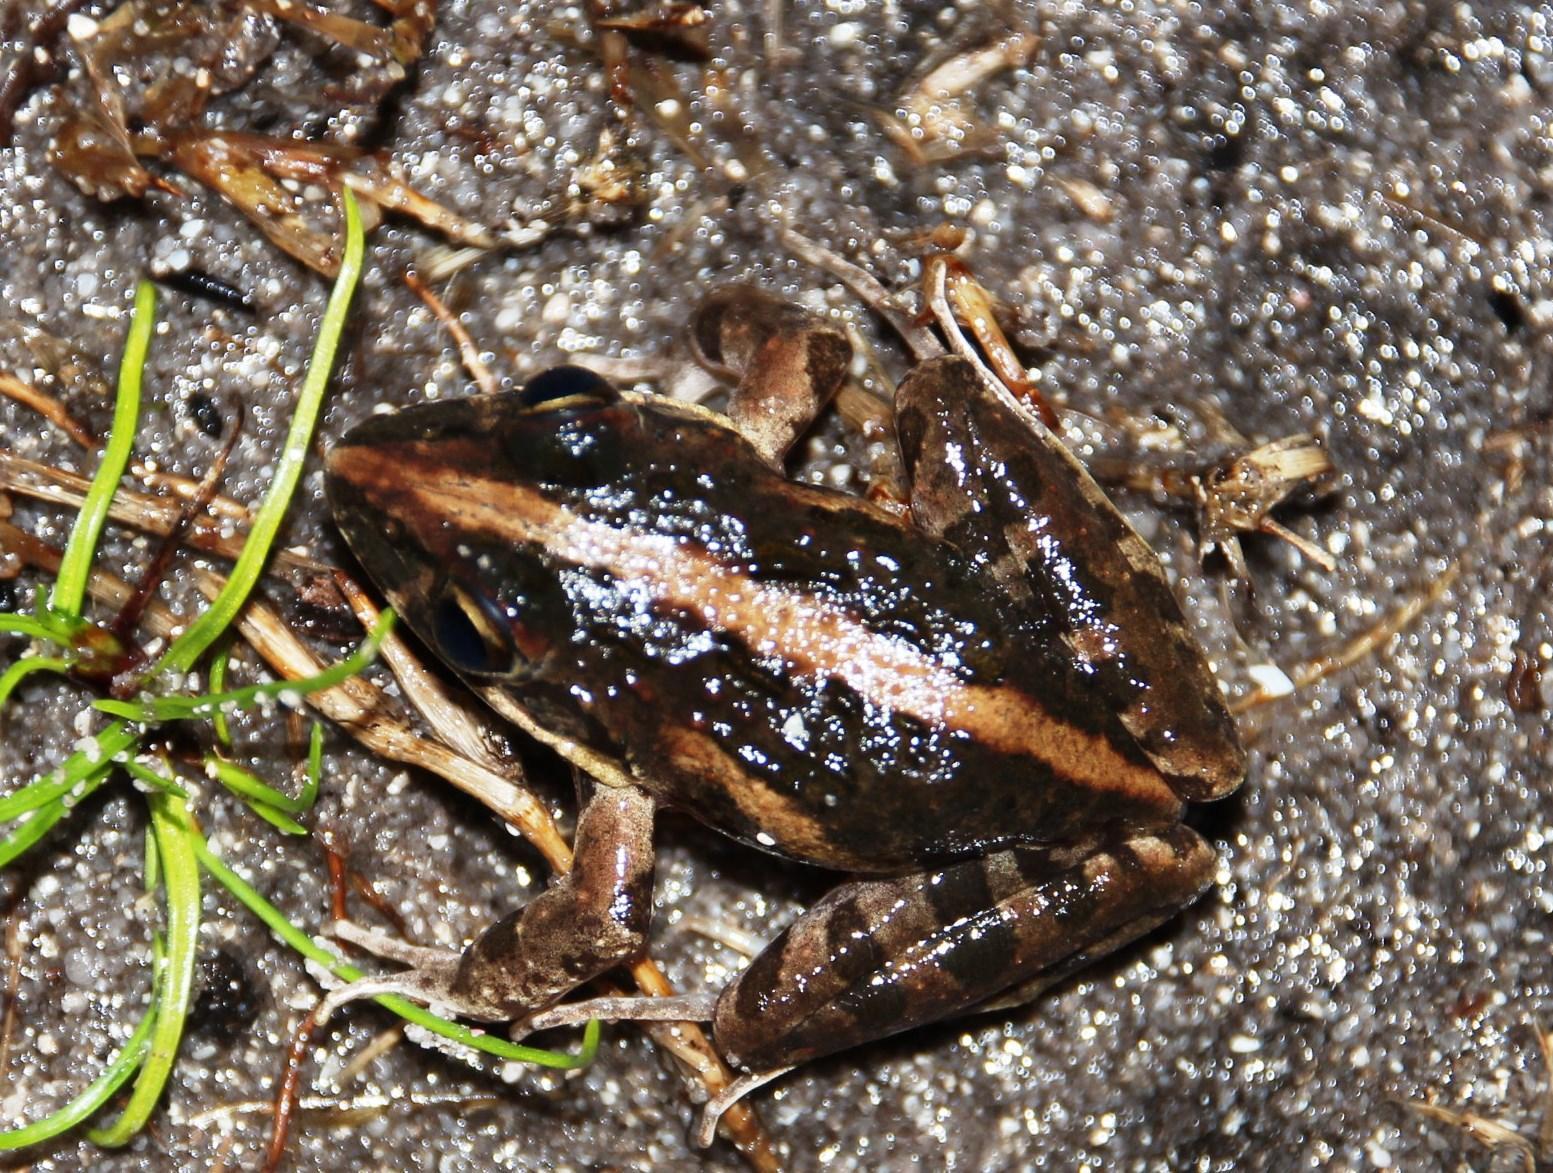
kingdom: Animalia
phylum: Chordata
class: Amphibia
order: Anura
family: Pyxicephalidae
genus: Strongylopus
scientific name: Strongylopus grayii
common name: Gray's stream frog
